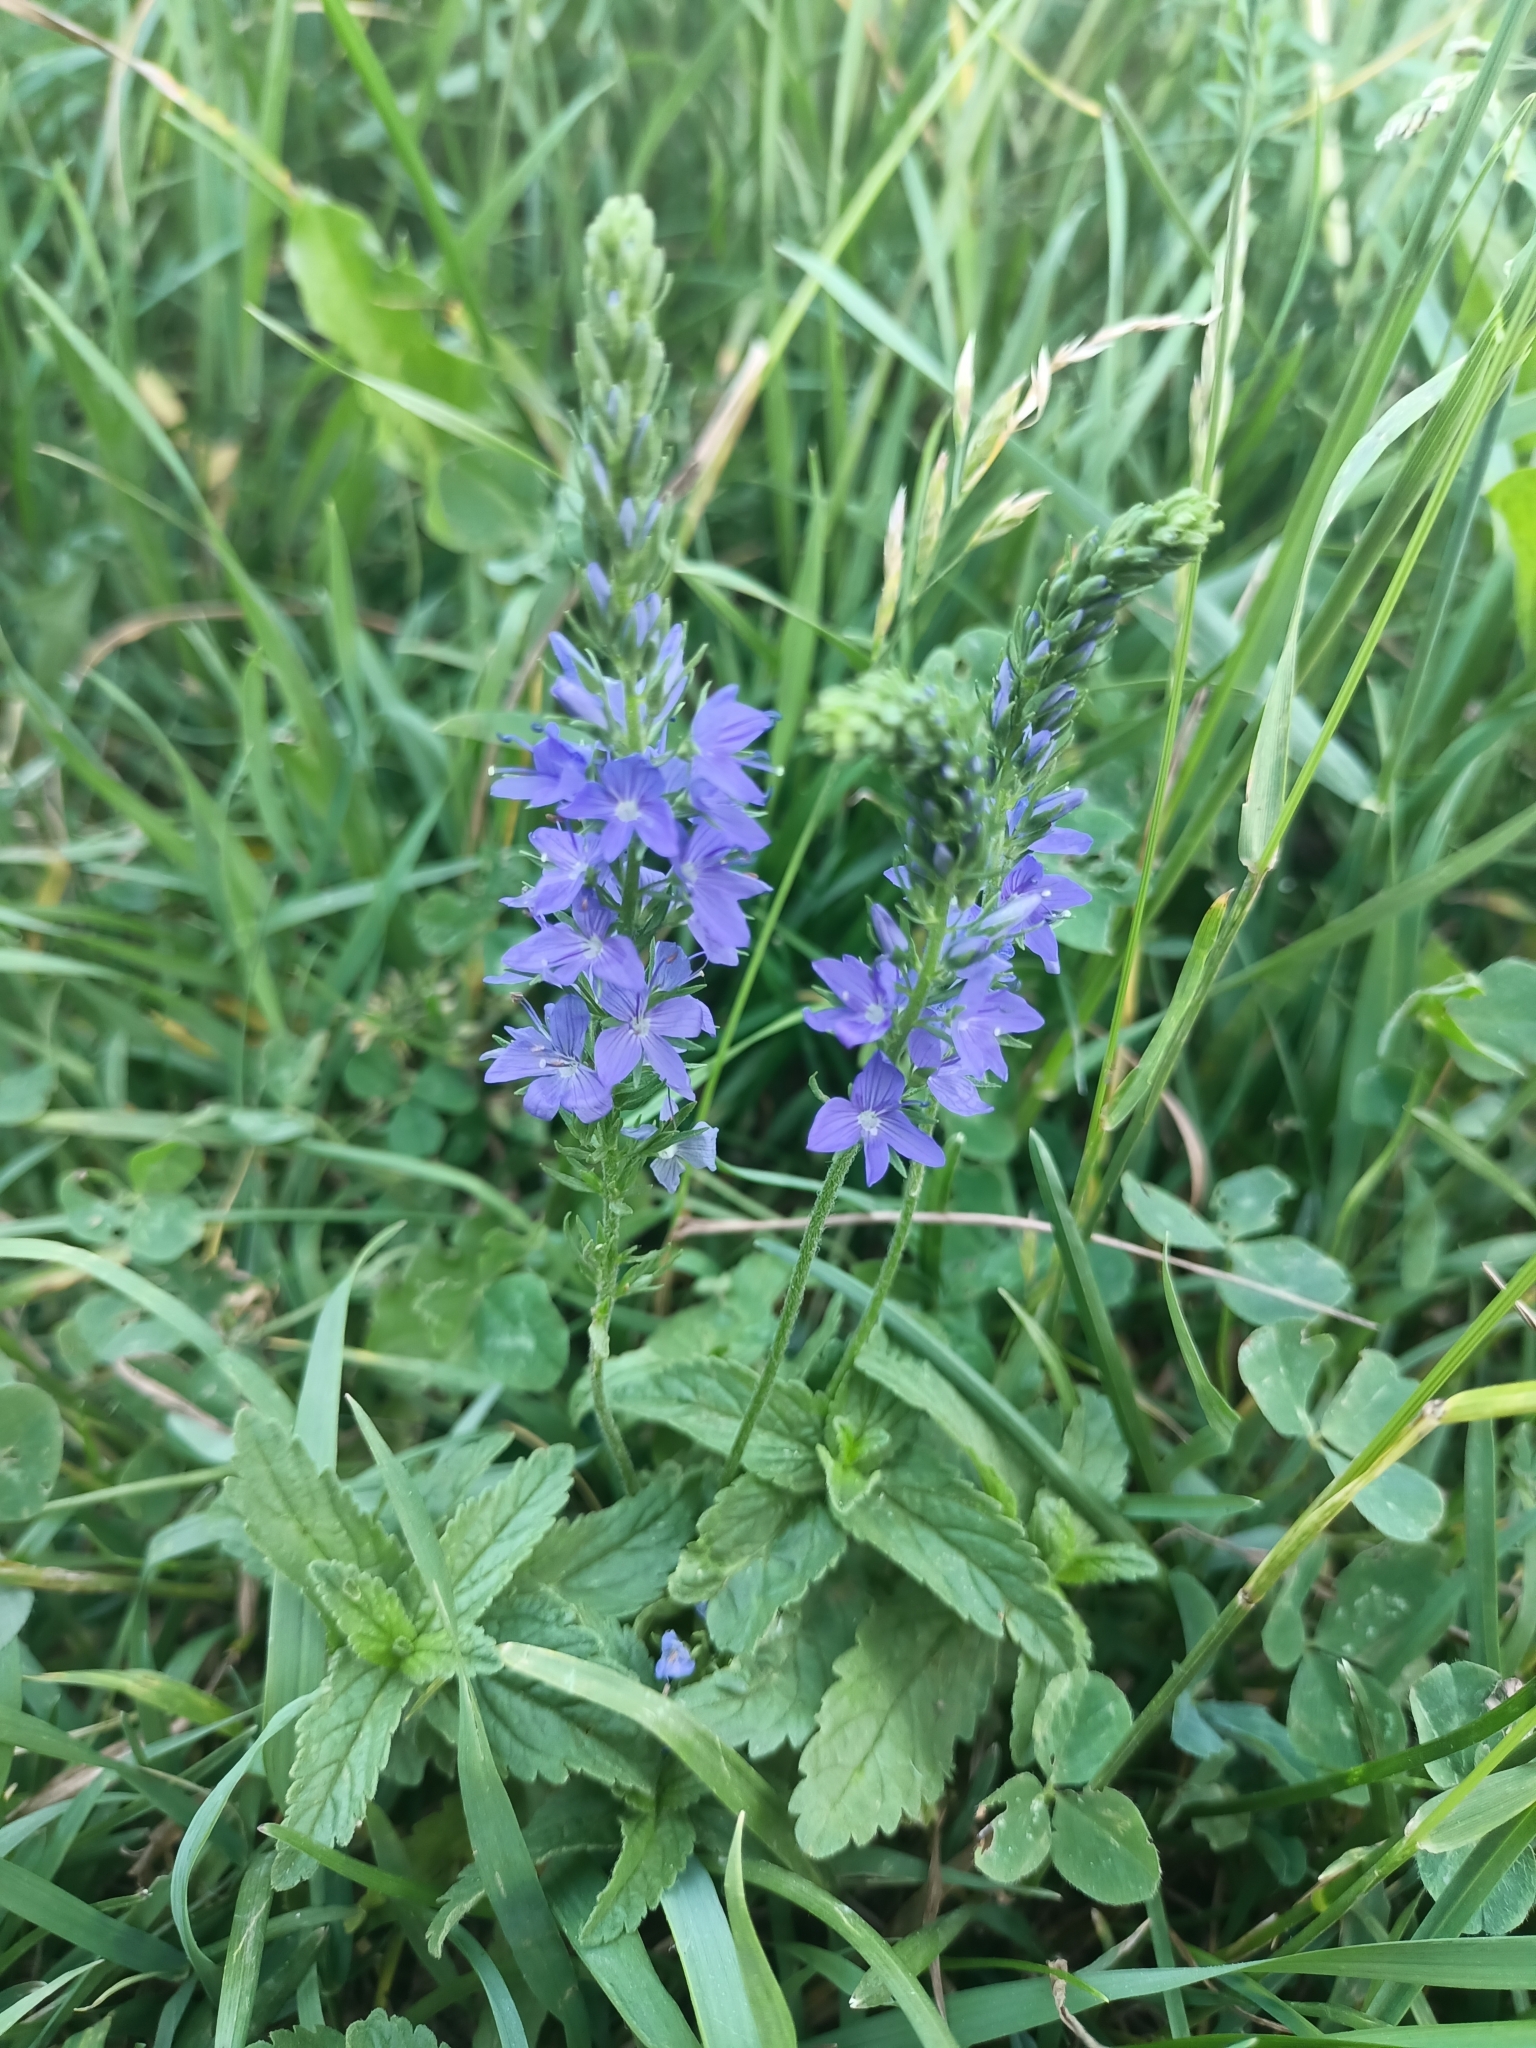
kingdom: Plantae
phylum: Tracheophyta
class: Magnoliopsida
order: Lamiales
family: Plantaginaceae
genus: Veronica
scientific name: Veronica teucrium
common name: Large speedwell
